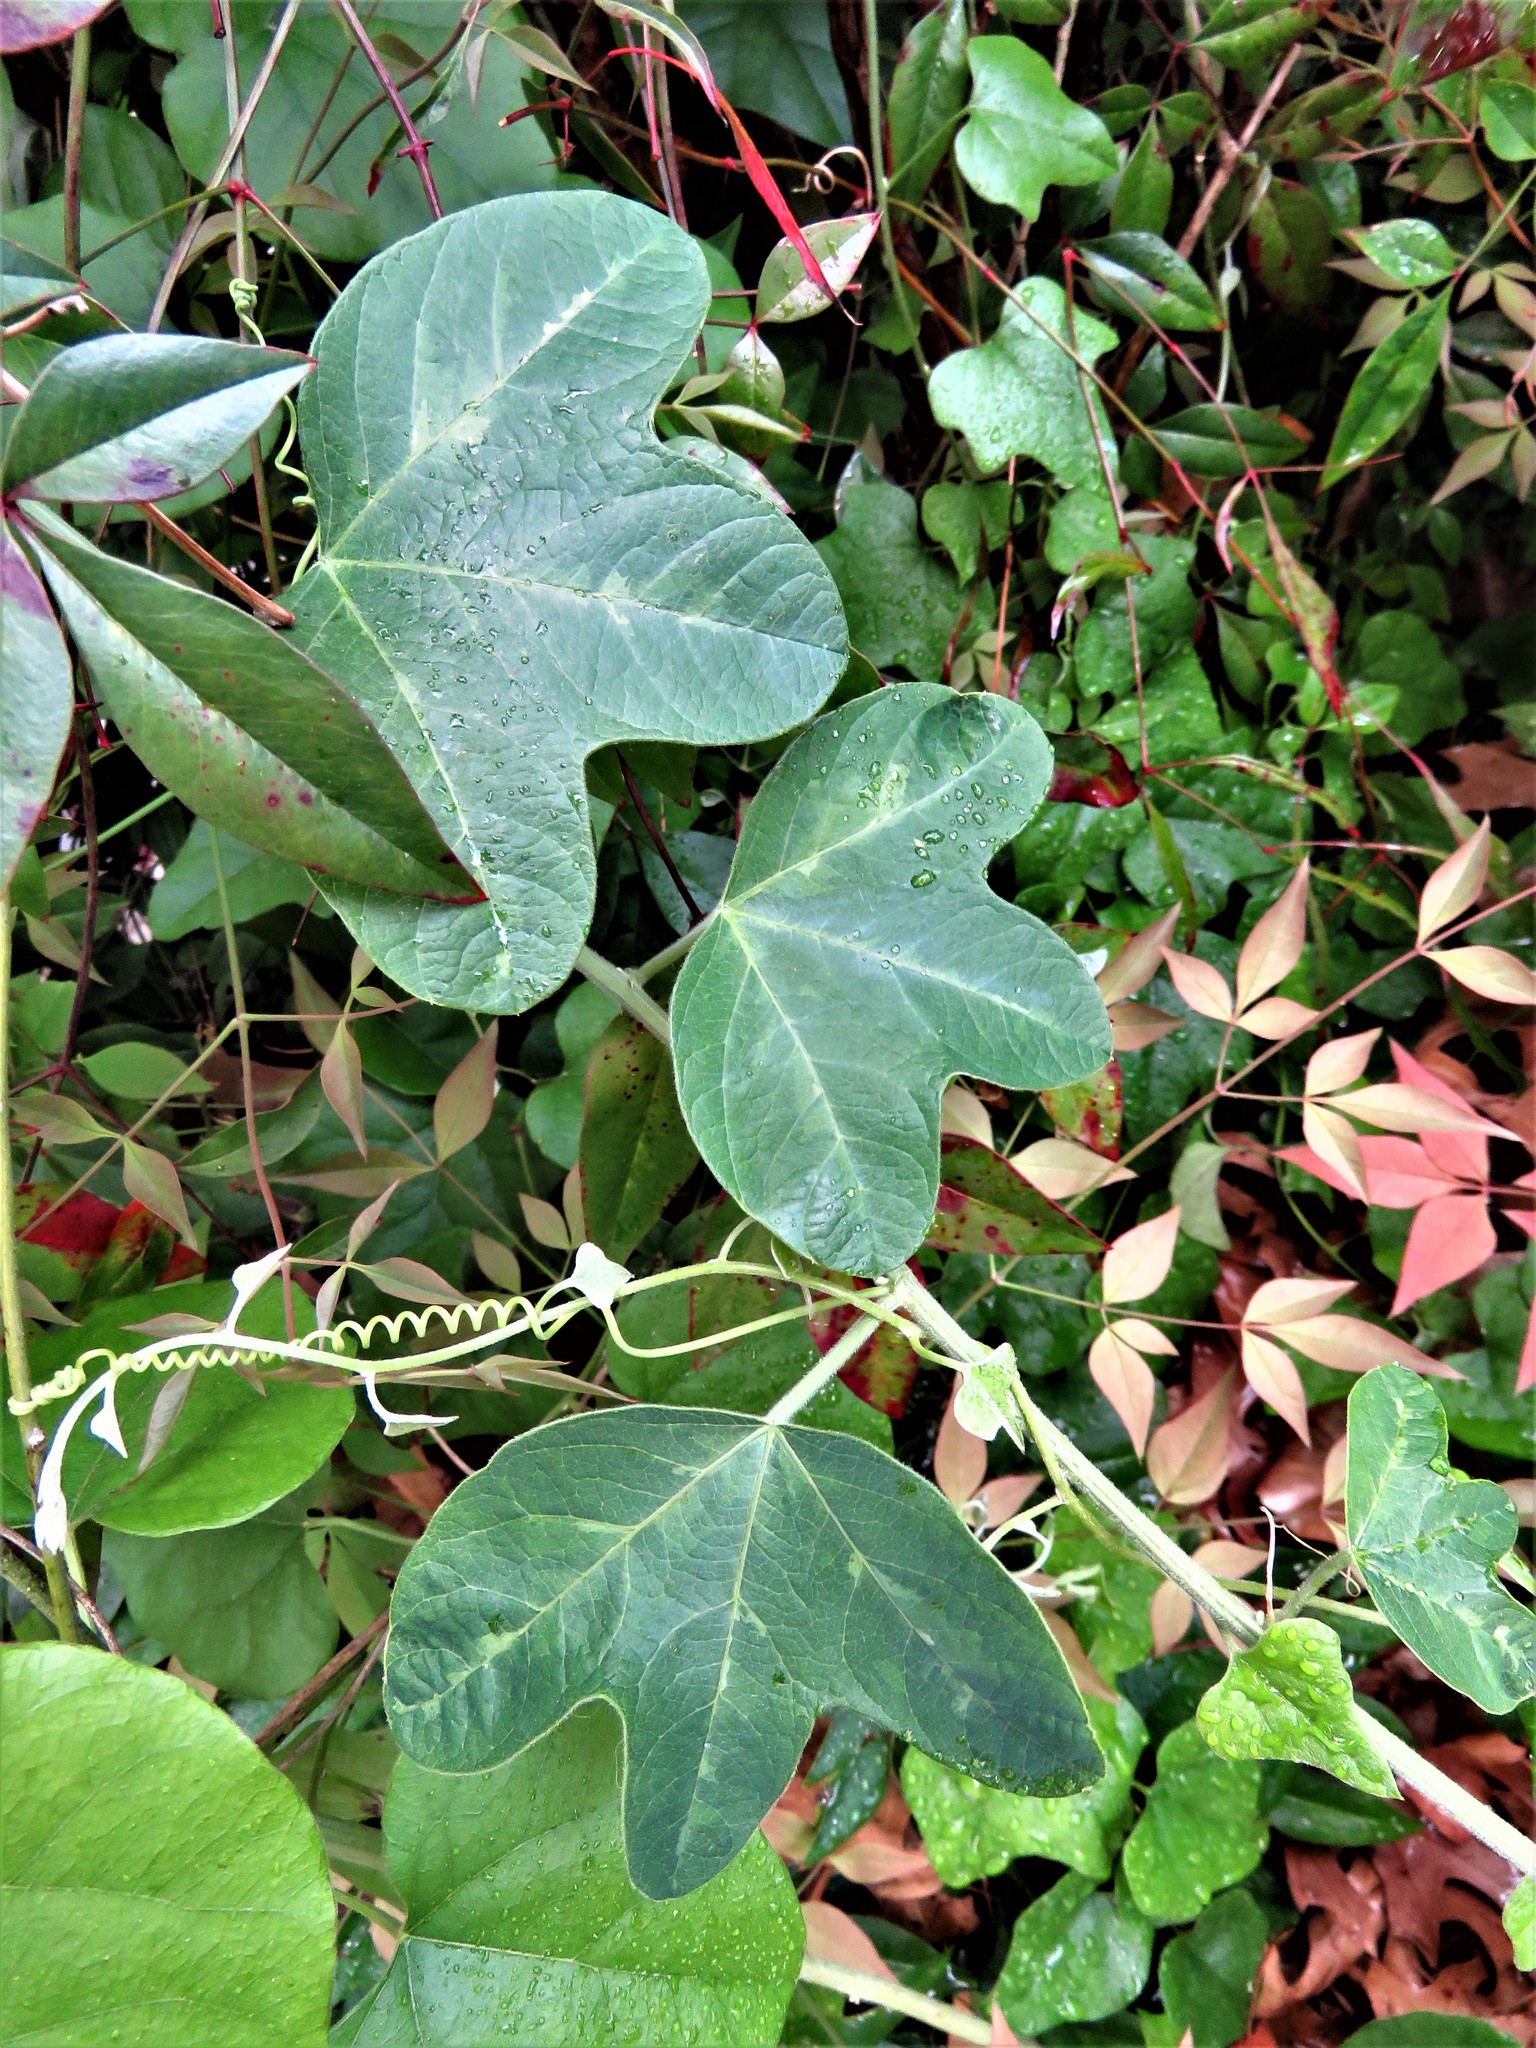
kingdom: Plantae
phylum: Tracheophyta
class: Magnoliopsida
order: Malpighiales
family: Passifloraceae
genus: Passiflora
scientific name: Passiflora lutea
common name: Yellow passionflower
